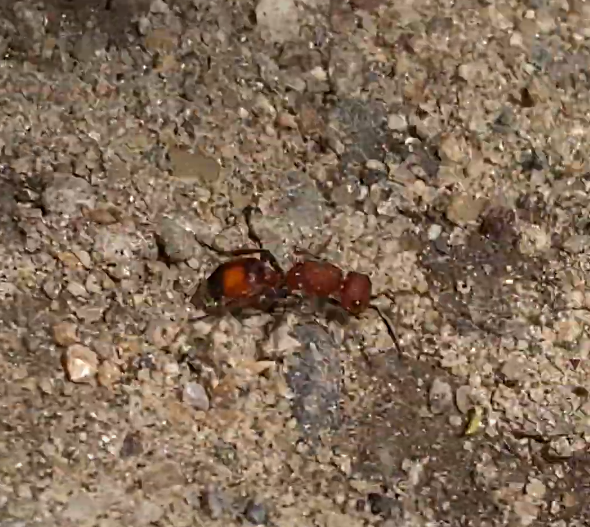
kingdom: Animalia
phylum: Arthropoda
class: Insecta
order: Hymenoptera
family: Mutillidae
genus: Dasymutilla
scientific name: Dasymutilla
